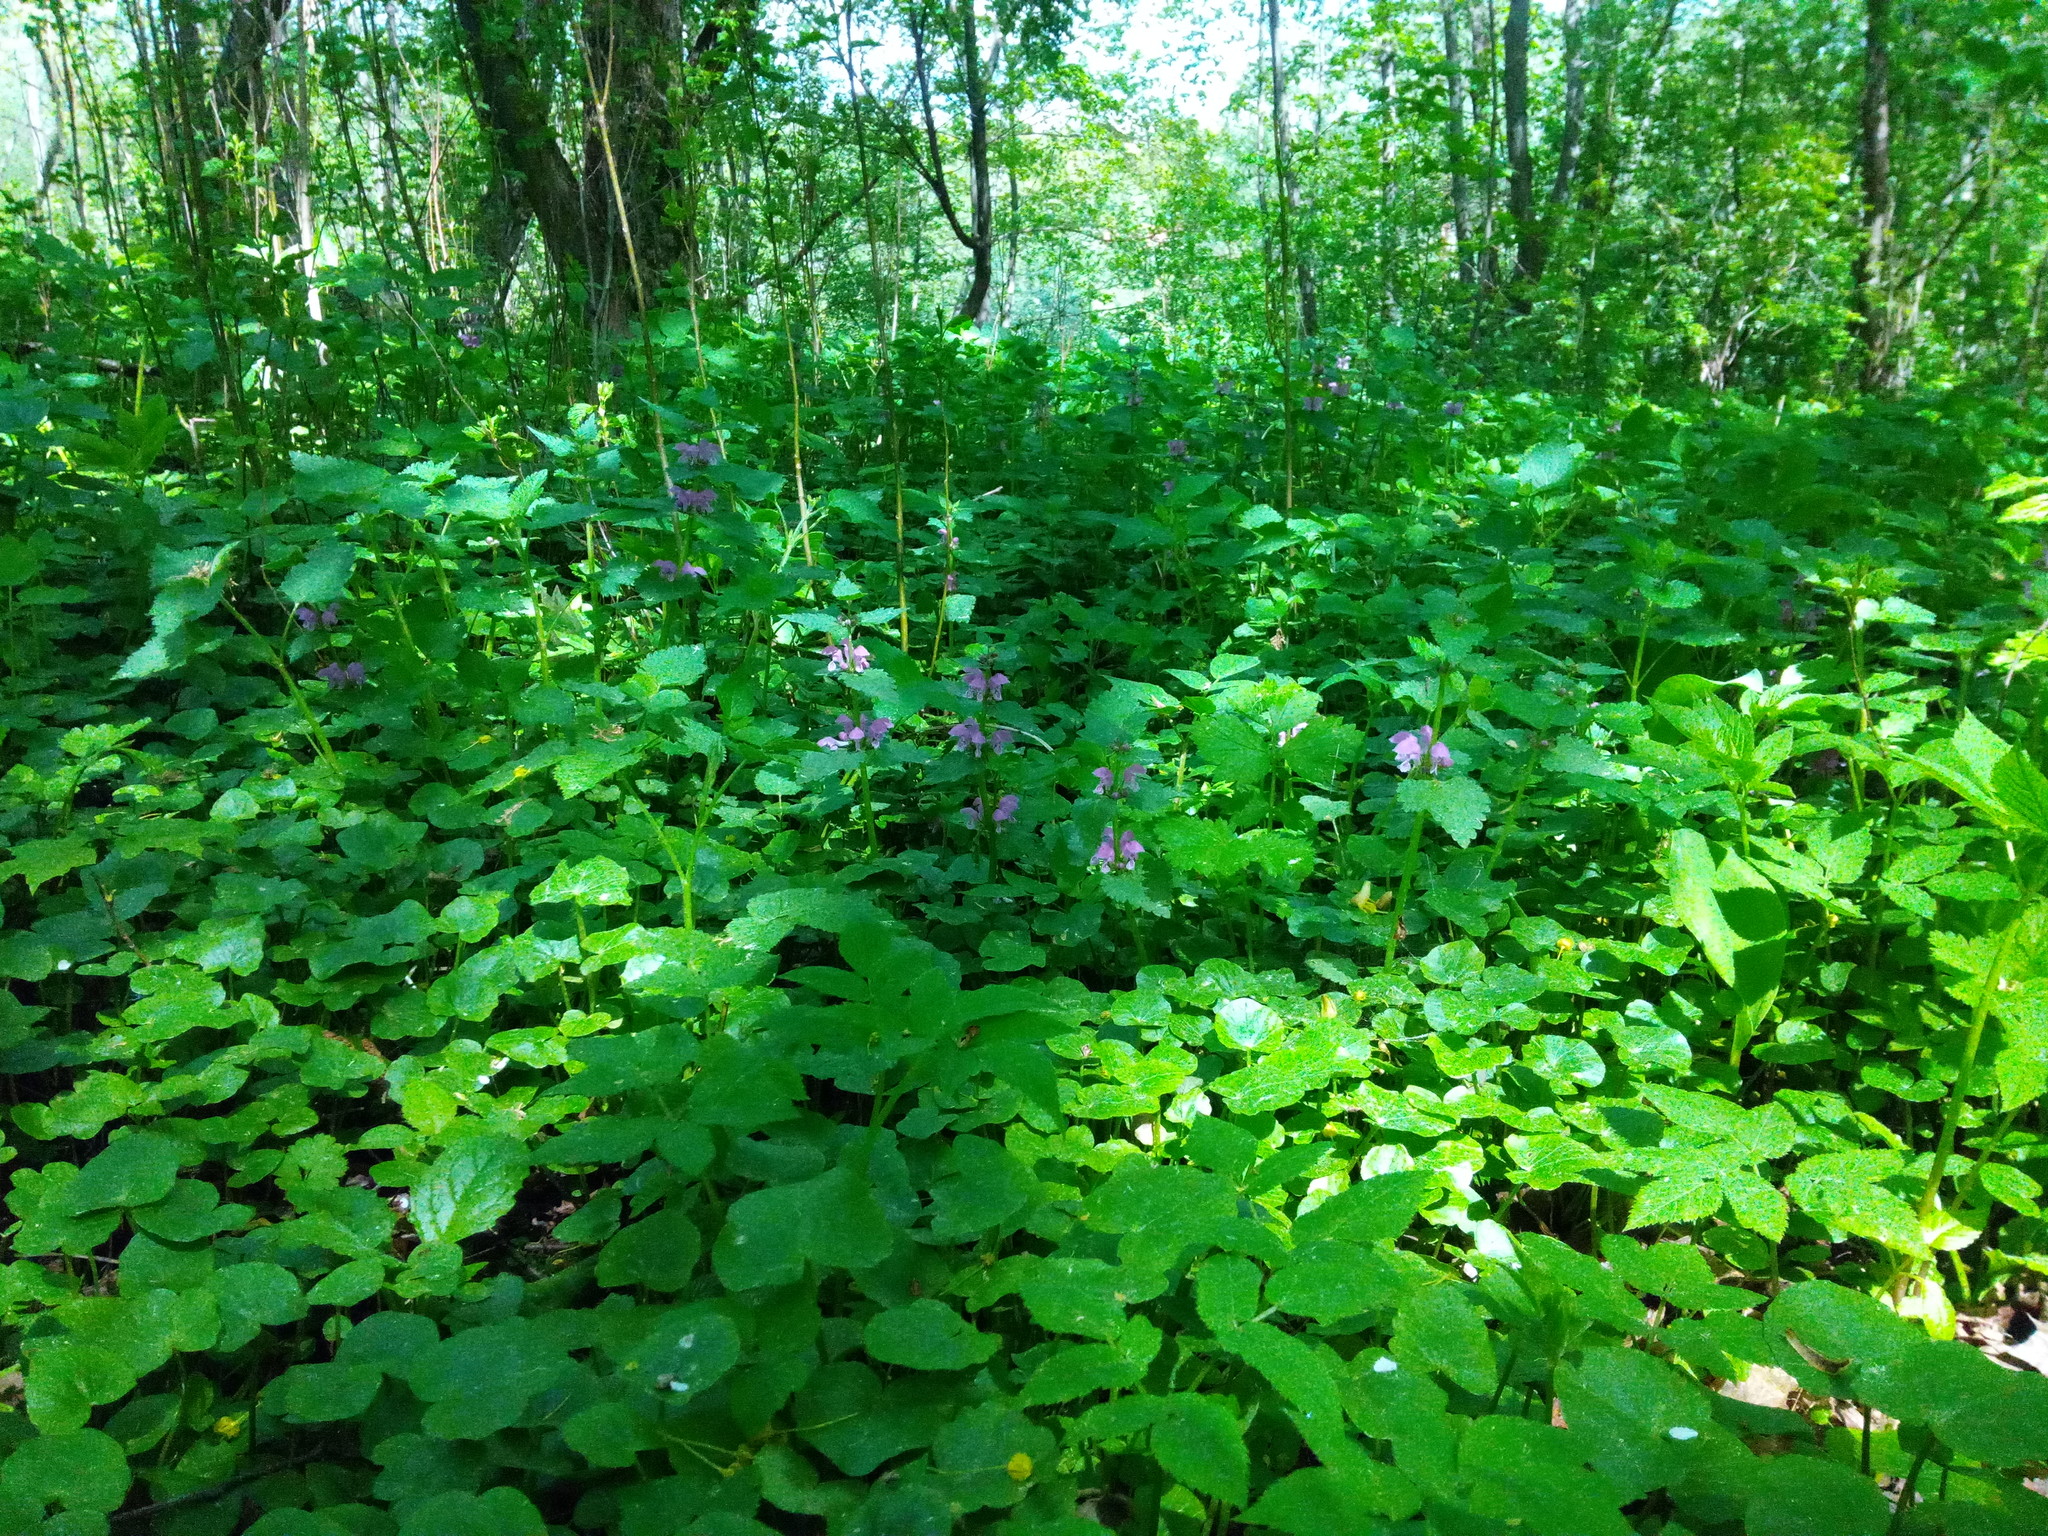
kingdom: Plantae
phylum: Tracheophyta
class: Magnoliopsida
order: Lamiales
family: Lamiaceae
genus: Lamium
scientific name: Lamium maculatum
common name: Spotted dead-nettle
